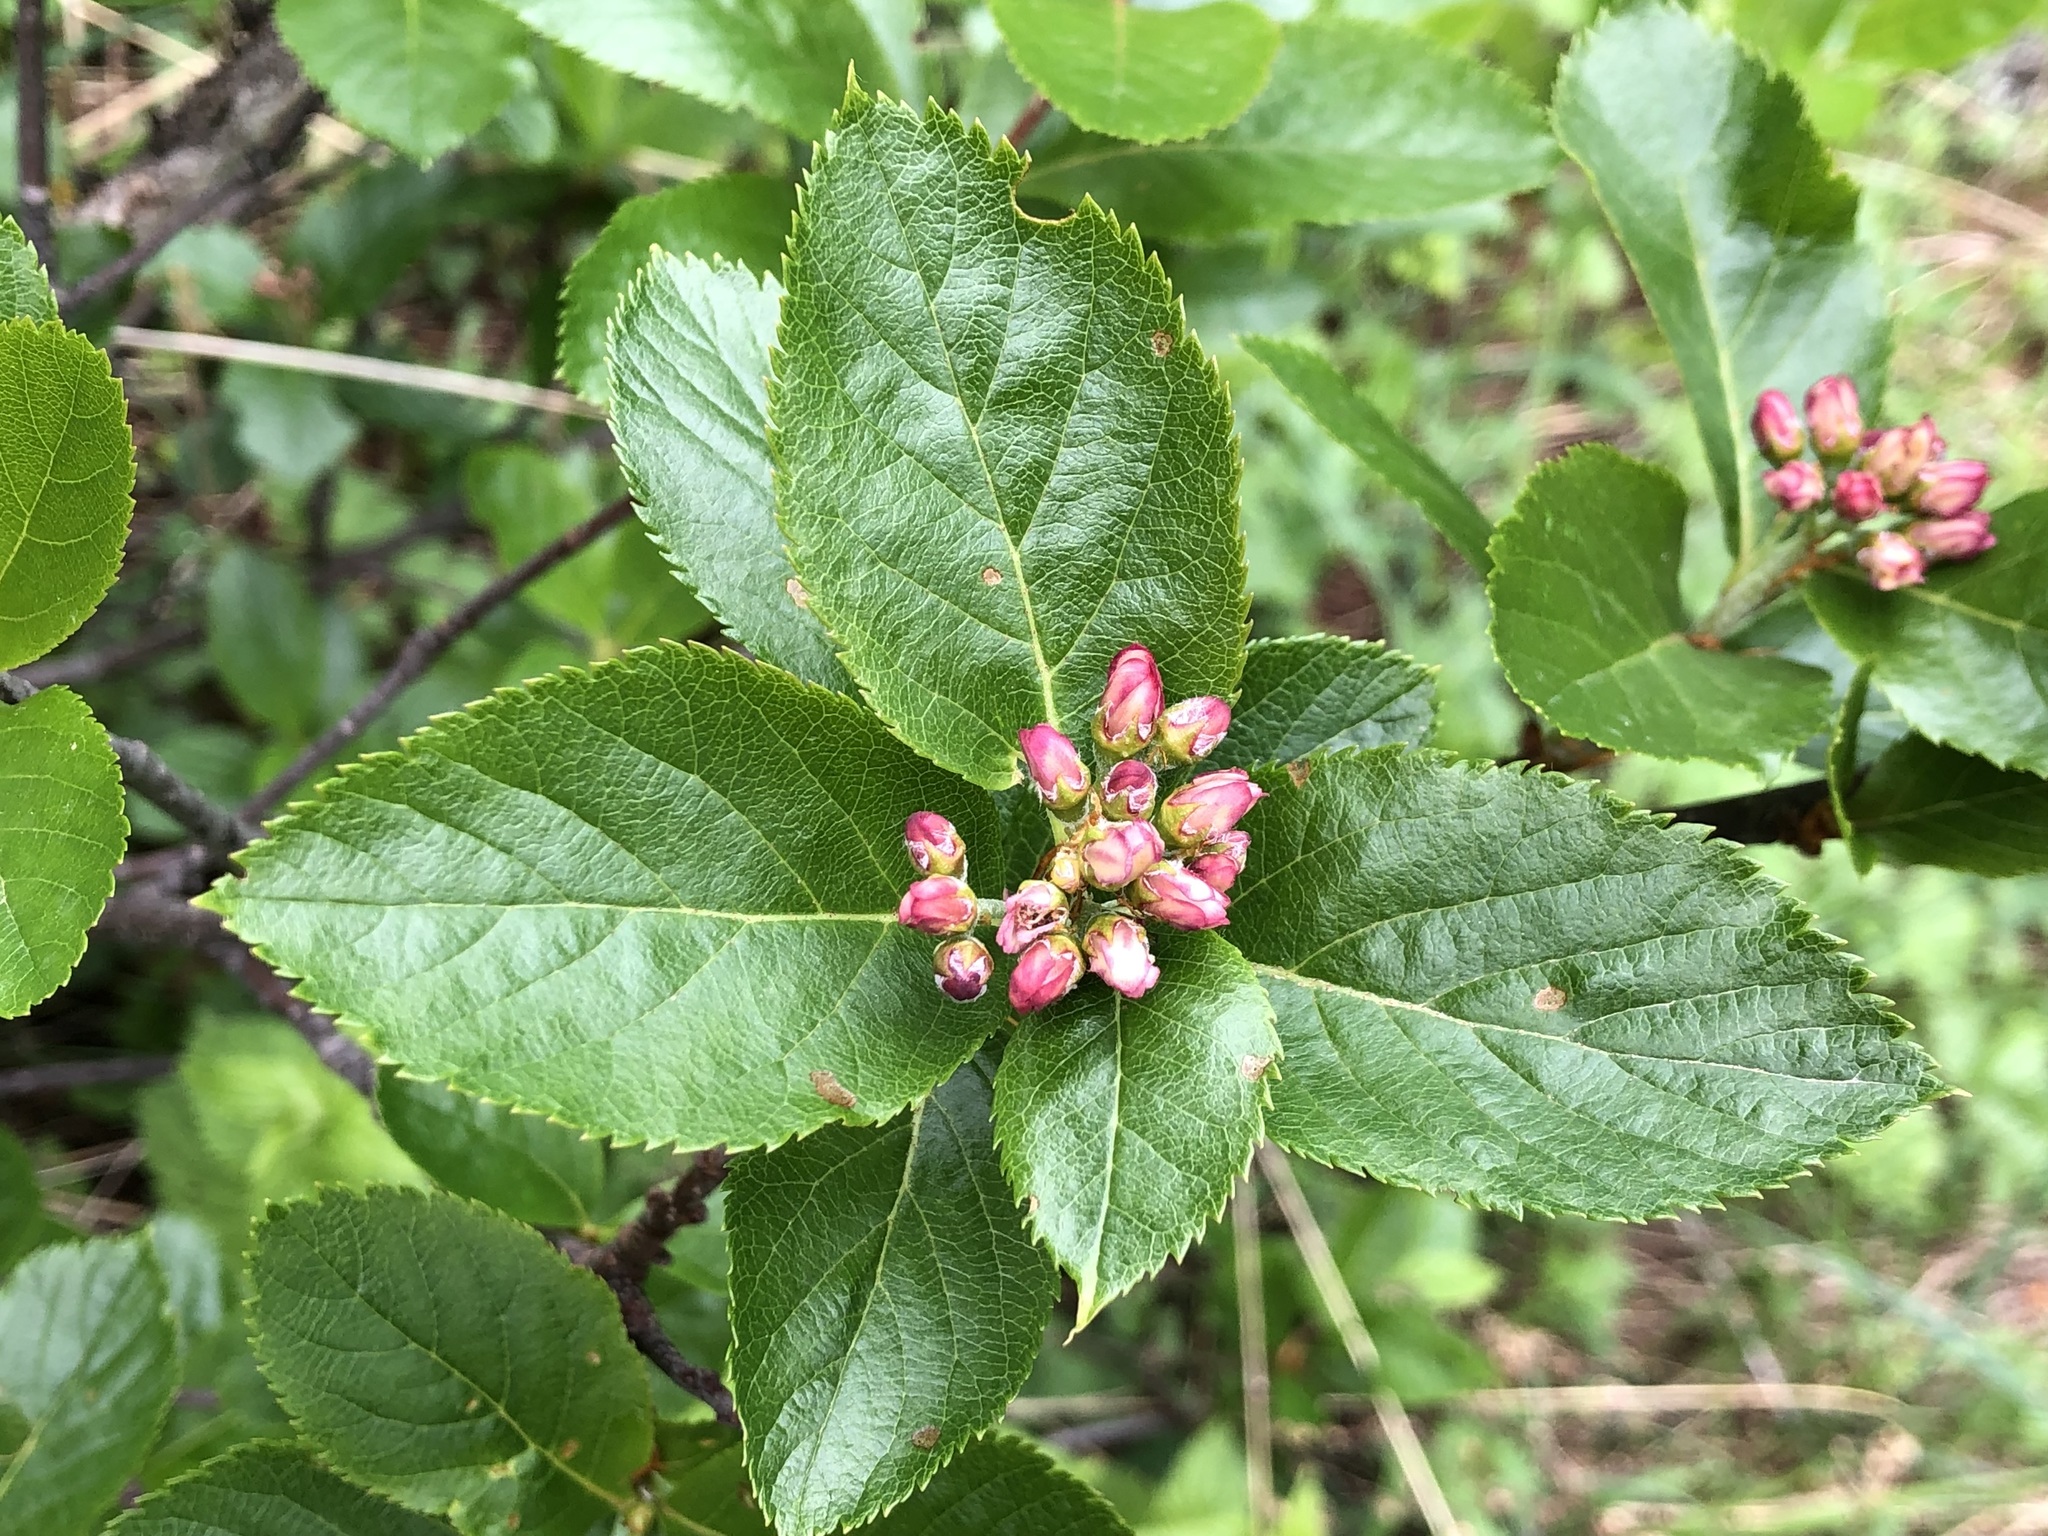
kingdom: Plantae
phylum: Tracheophyta
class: Magnoliopsida
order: Rosales
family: Rosaceae
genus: Chamaemespilus
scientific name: Chamaemespilus alpina
